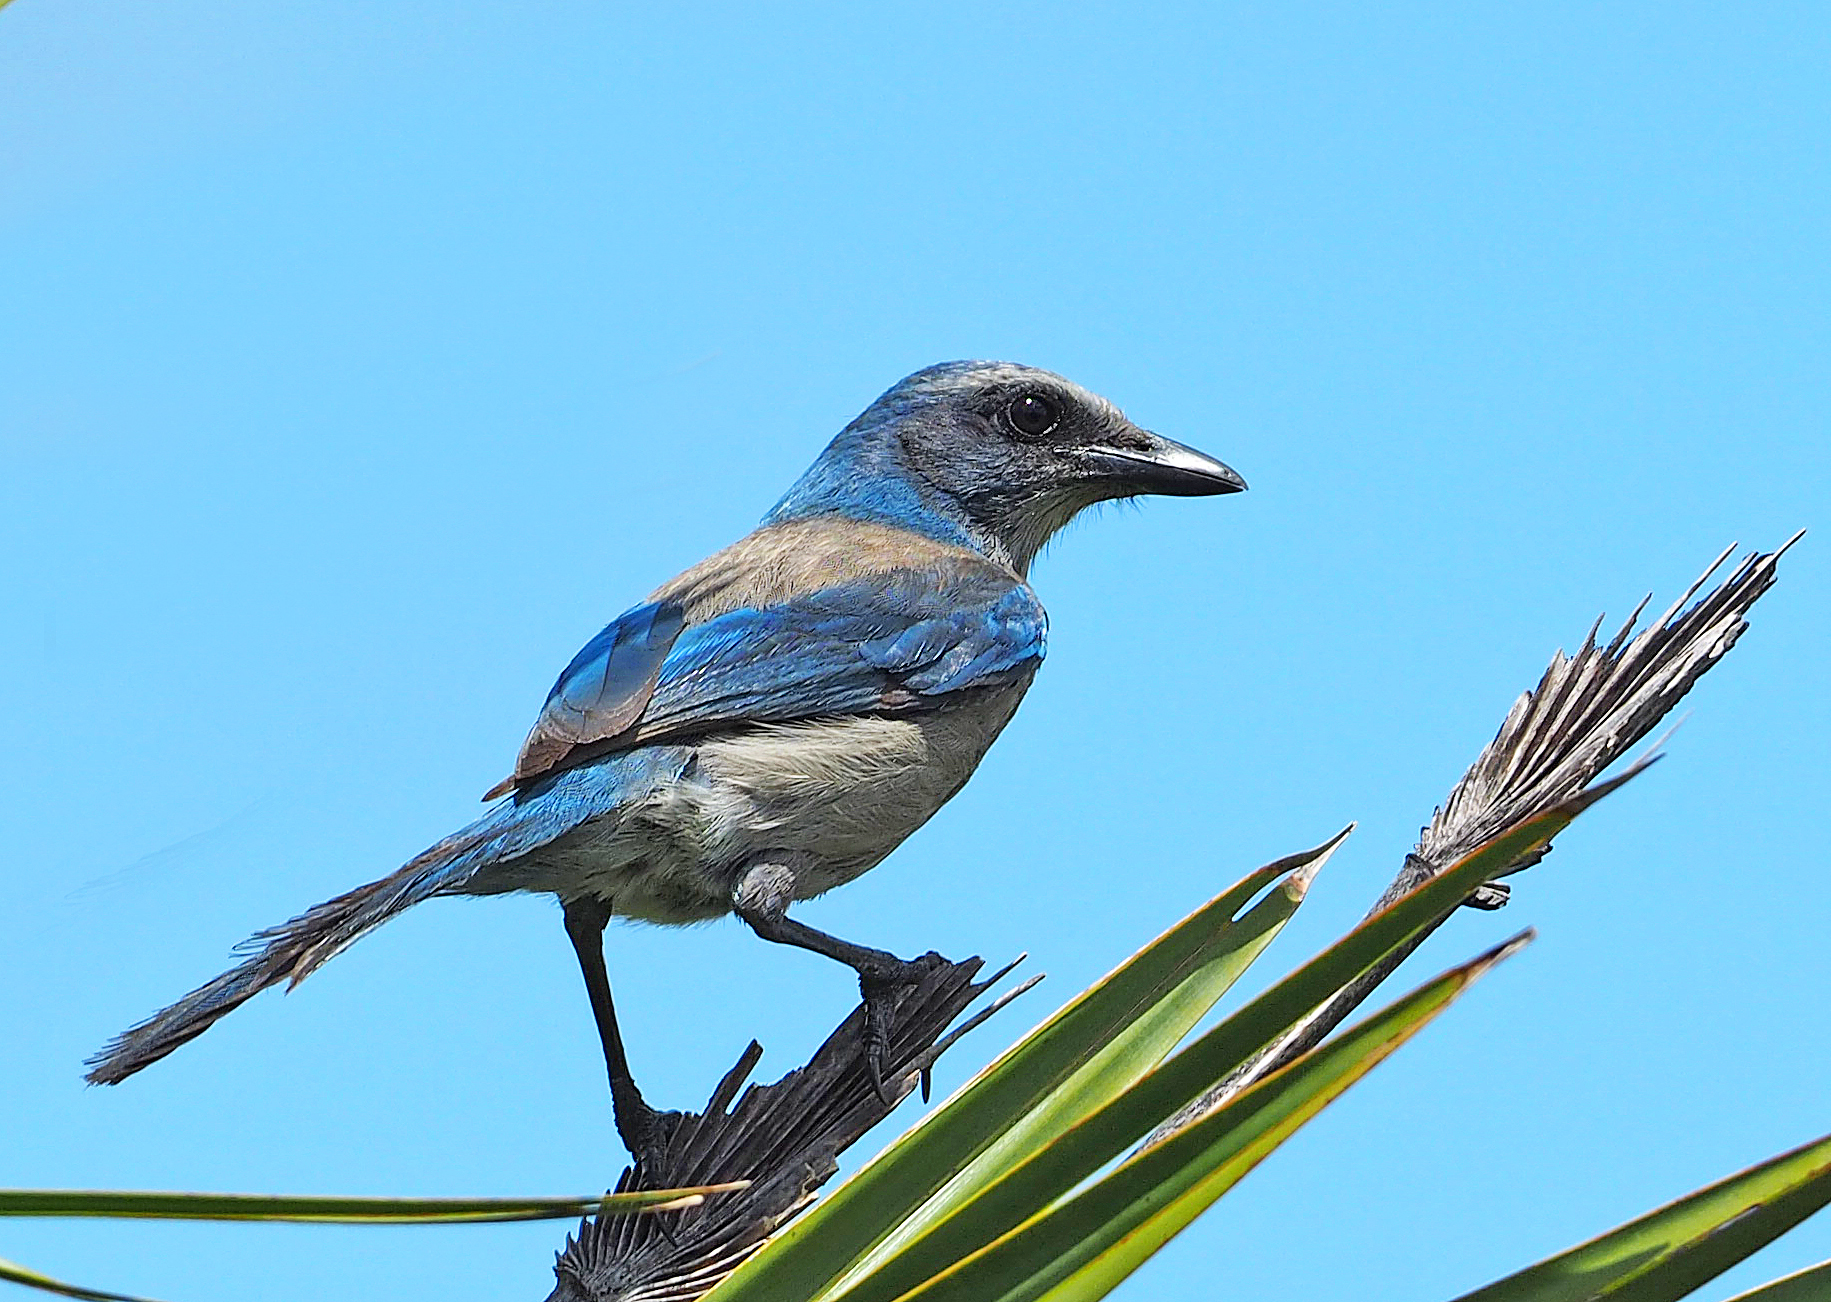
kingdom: Animalia
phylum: Chordata
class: Aves
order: Passeriformes
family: Corvidae
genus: Aphelocoma
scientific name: Aphelocoma coerulescens
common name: Florida scrub jay
